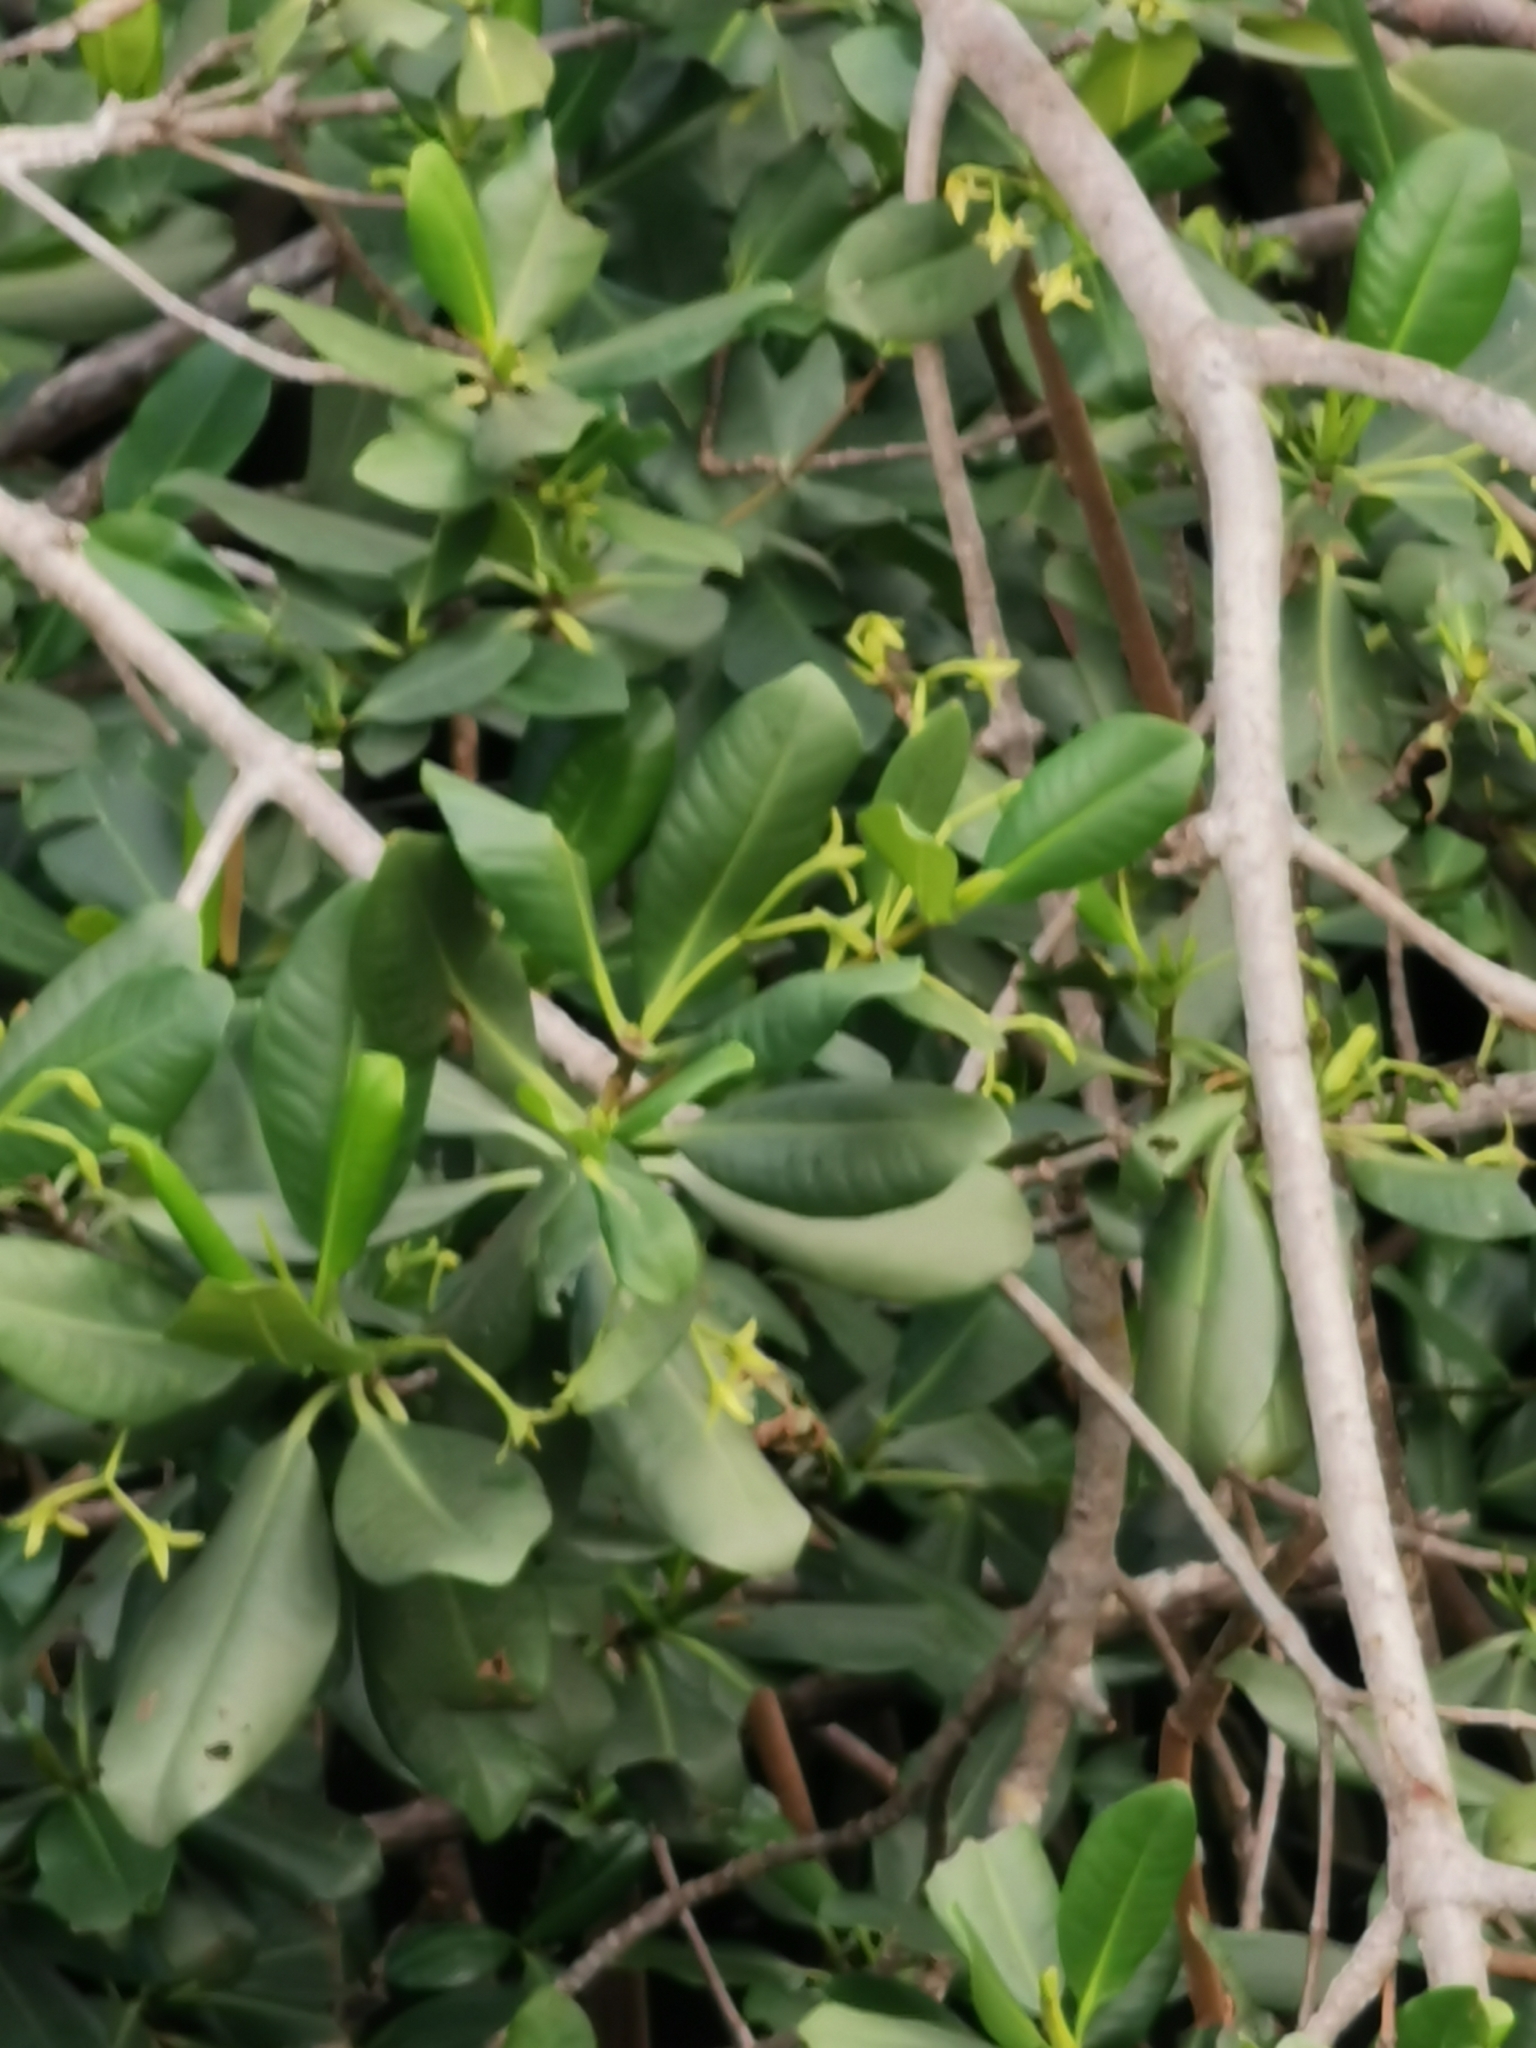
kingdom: Plantae
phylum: Tracheophyta
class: Magnoliopsida
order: Malpighiales
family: Rhizophoraceae
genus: Rhizophora
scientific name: Rhizophora mangle
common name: Red mangrove
